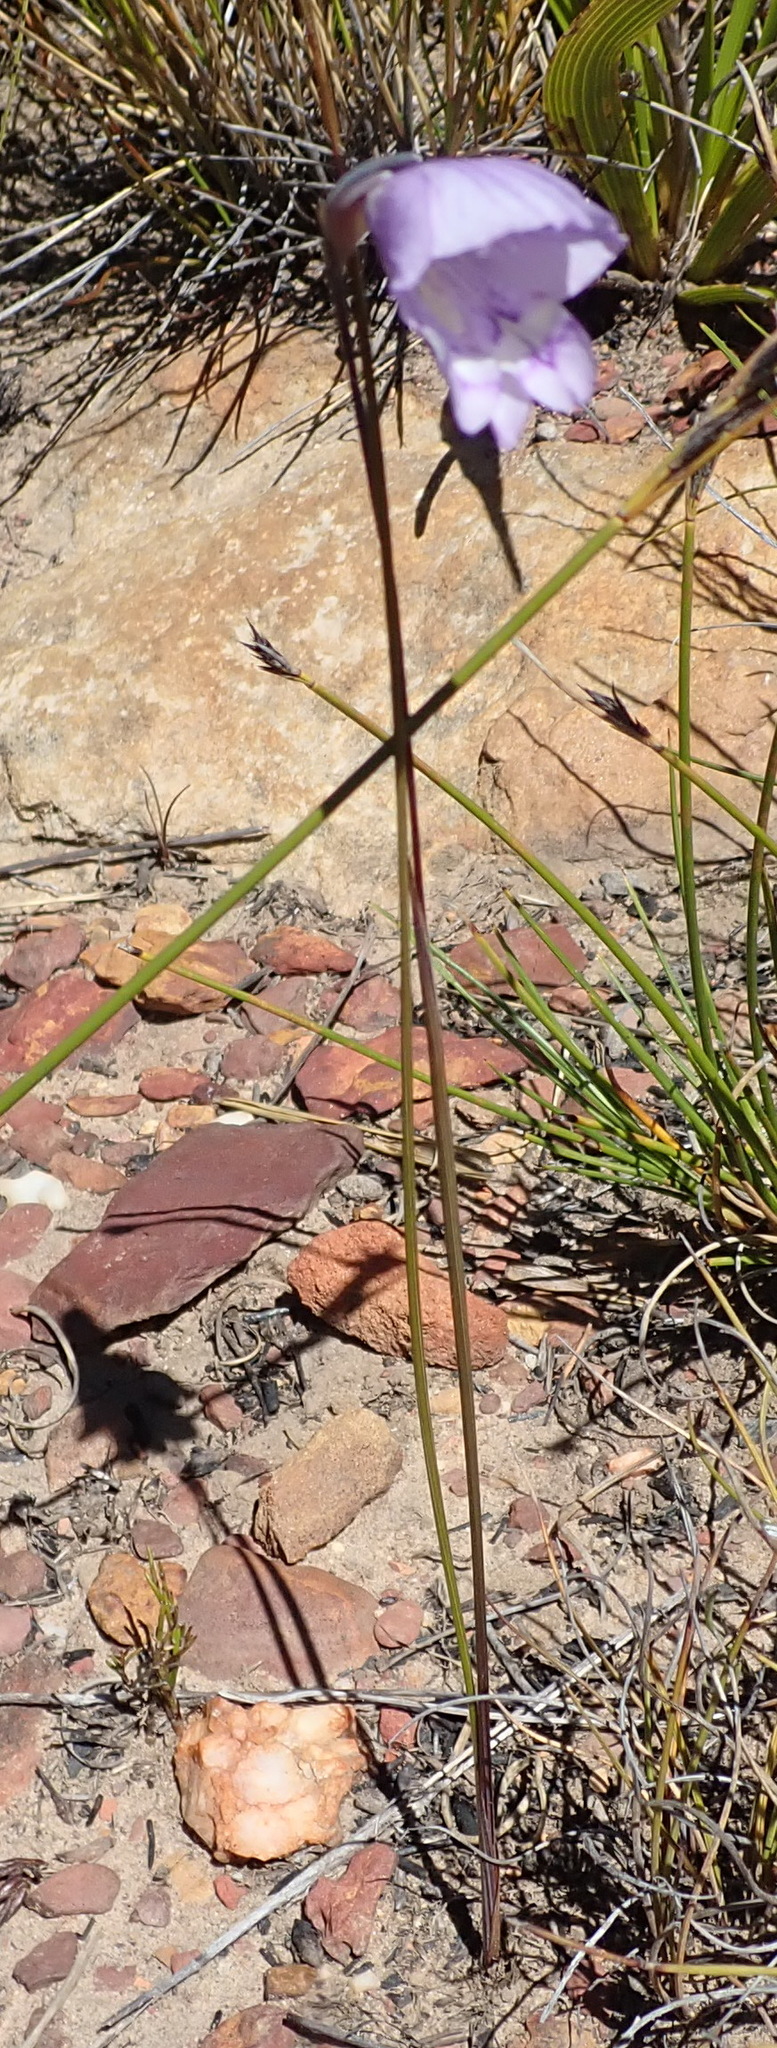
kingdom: Plantae
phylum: Tracheophyta
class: Liliopsida
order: Asparagales
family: Iridaceae
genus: Gladiolus
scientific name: Gladiolus rogersii
